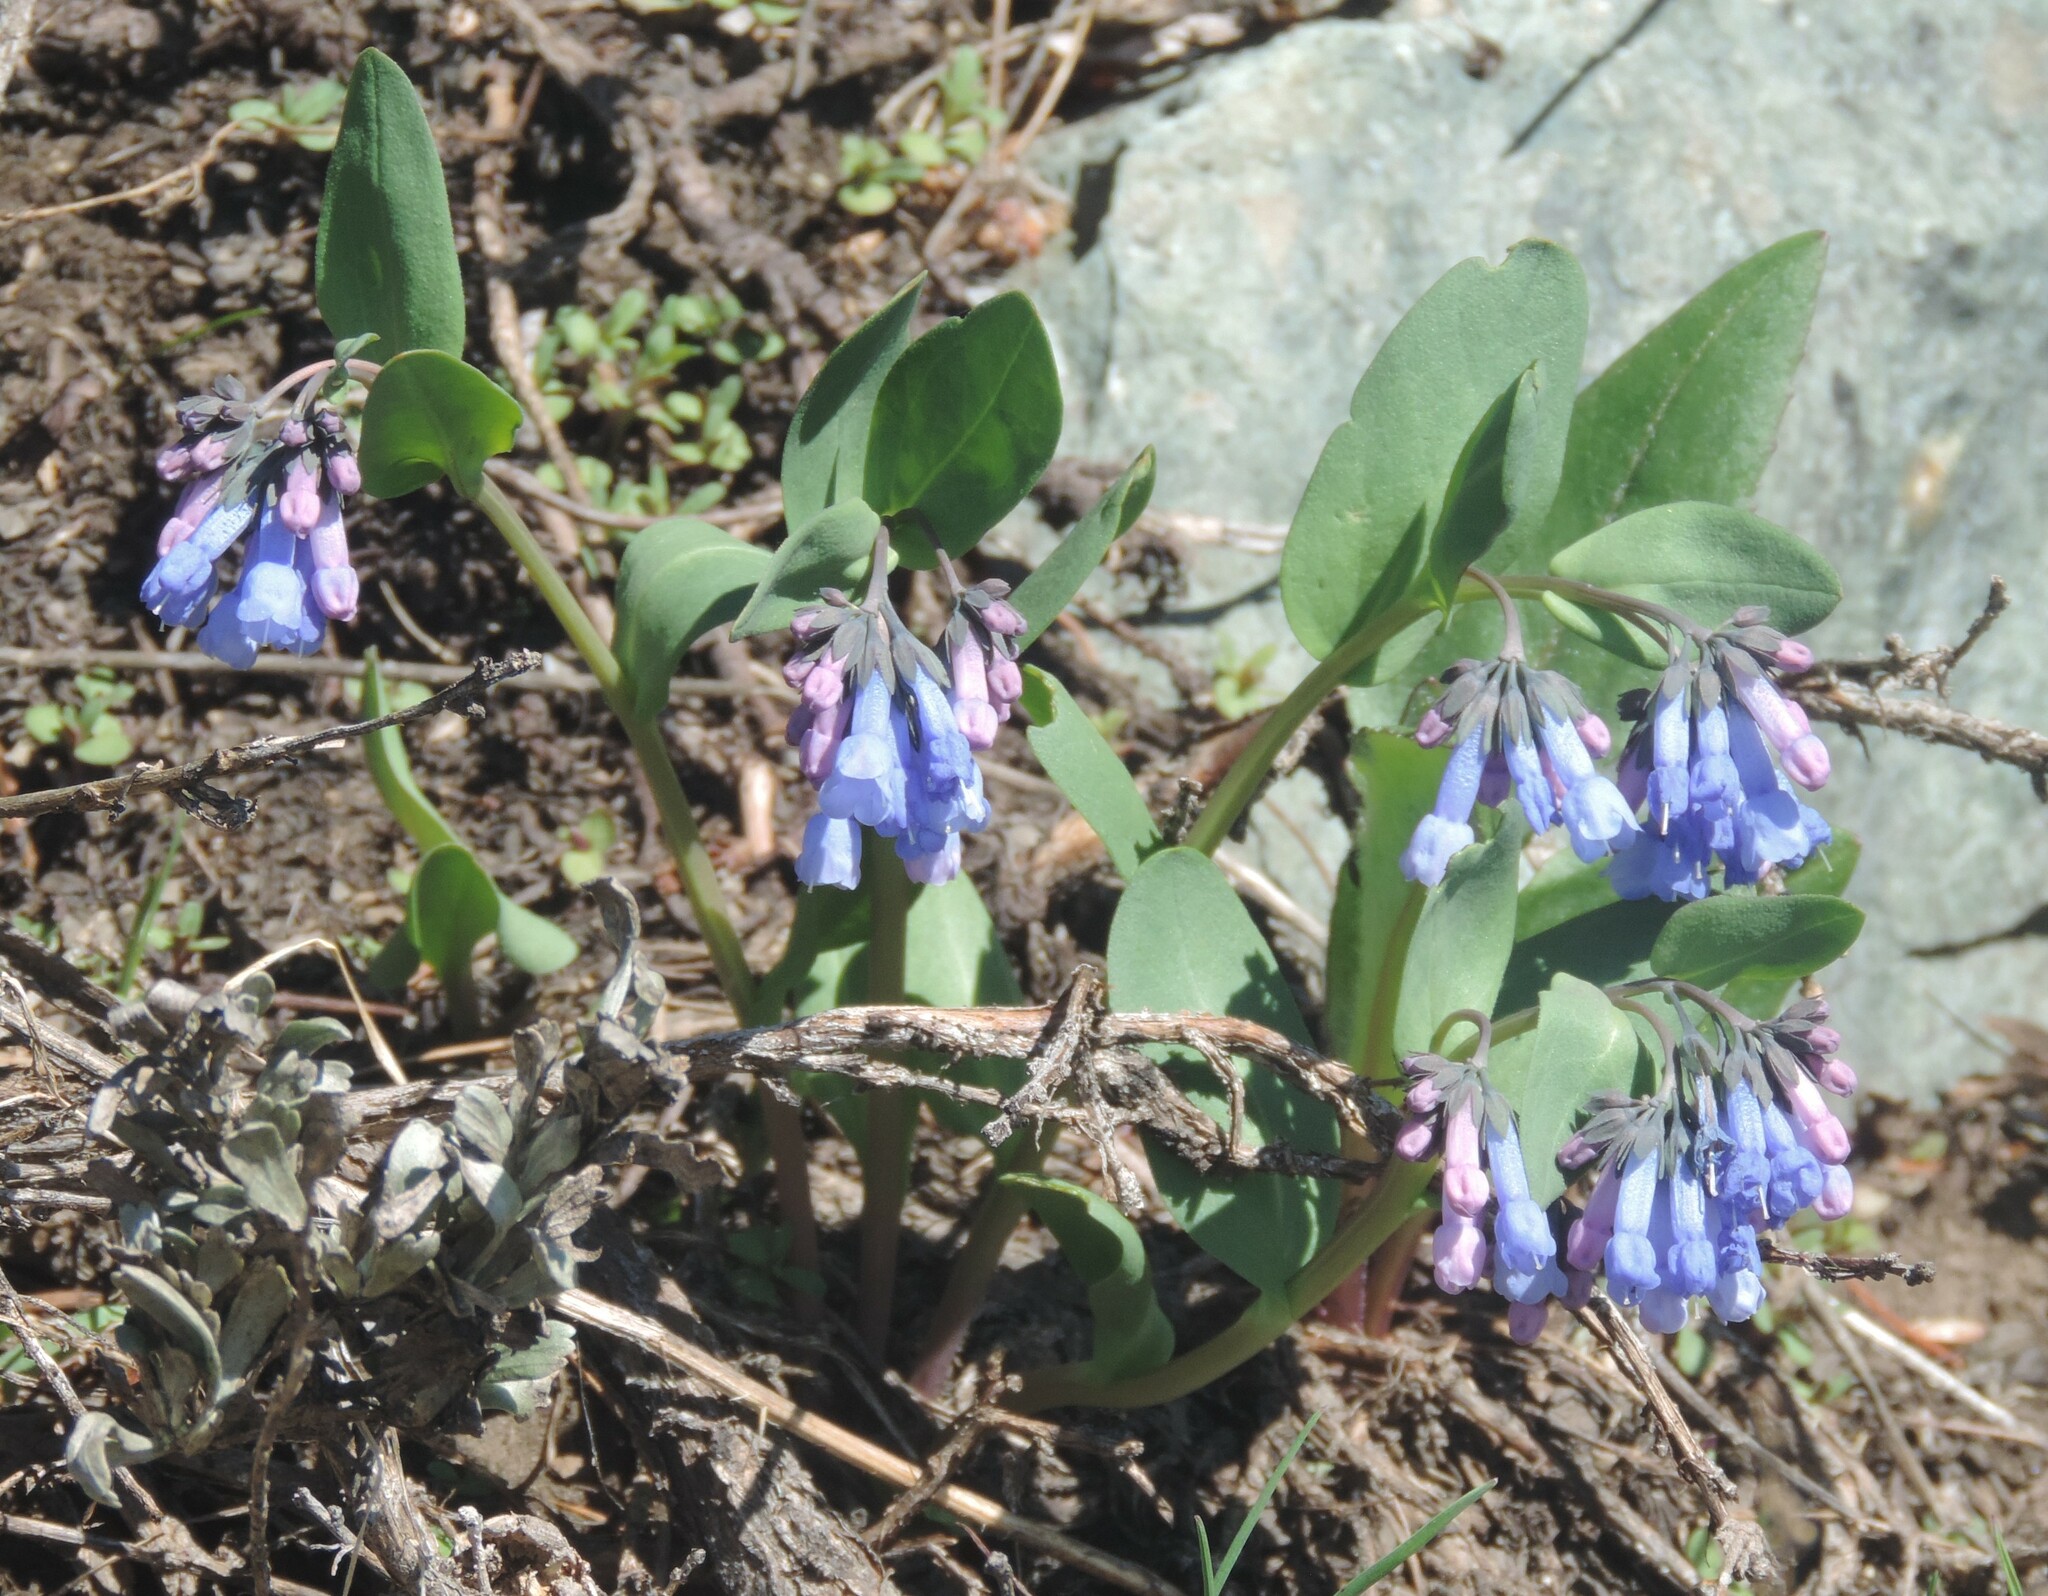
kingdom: Plantae
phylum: Tracheophyta
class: Magnoliopsida
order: Boraginales
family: Boraginaceae
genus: Mertensia
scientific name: Mertensia longiflora
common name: Large-flowered bluebells
